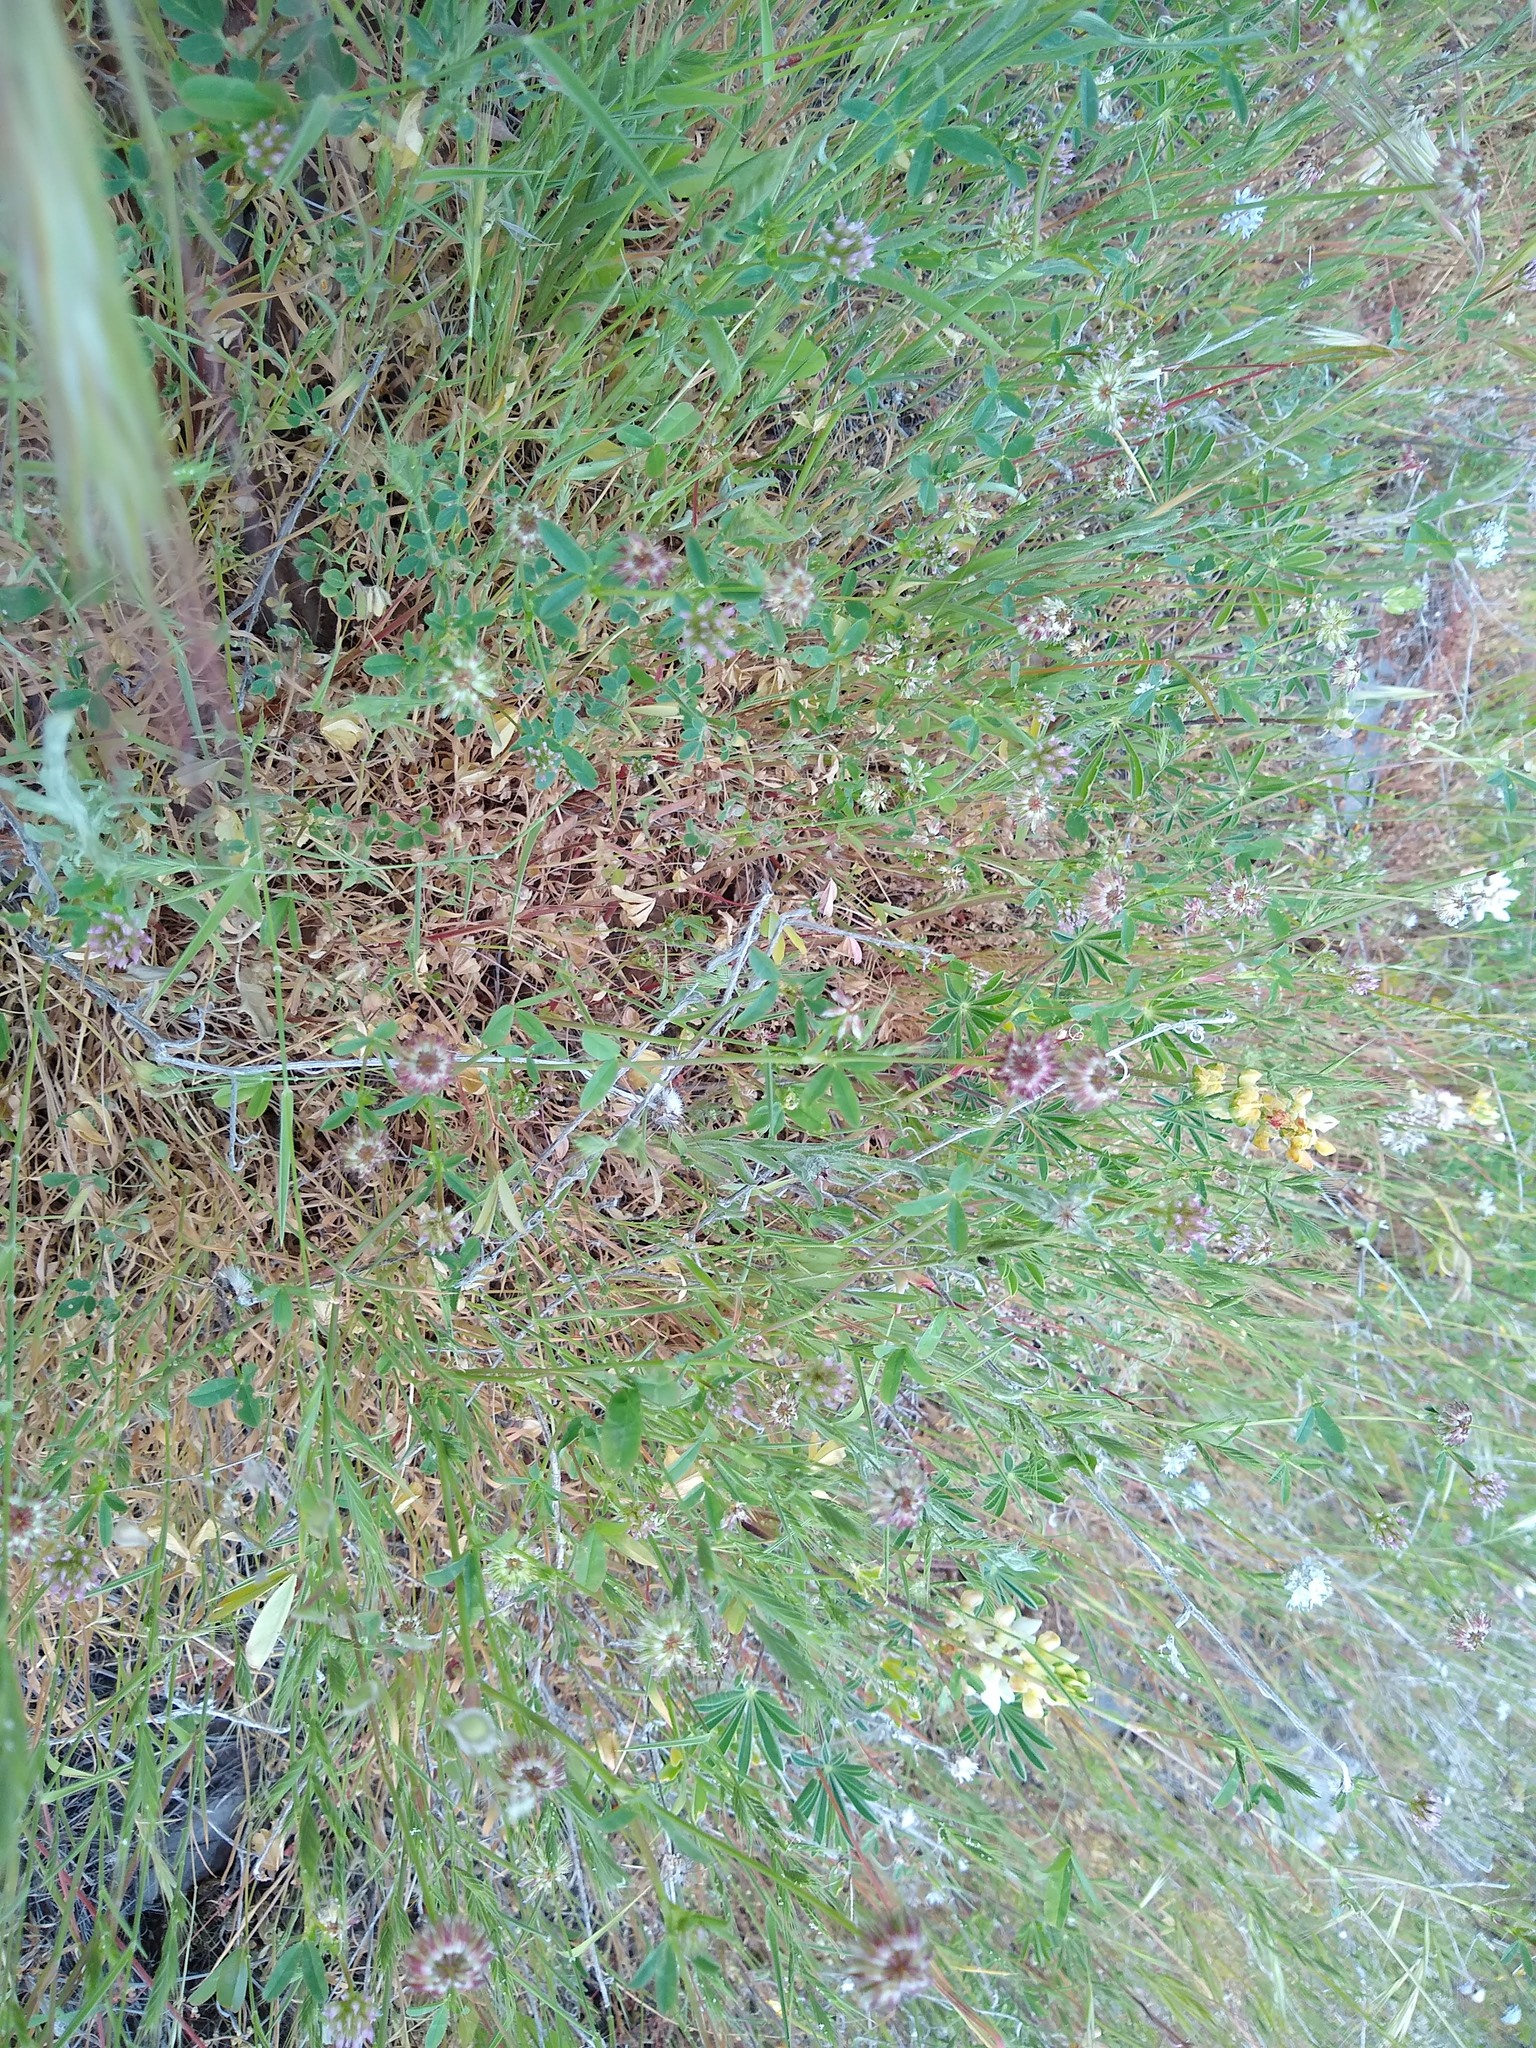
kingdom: Plantae
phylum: Tracheophyta
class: Magnoliopsida
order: Fabales
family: Fabaceae
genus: Trifolium
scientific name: Trifolium ciliolatum
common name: Foothill clover
